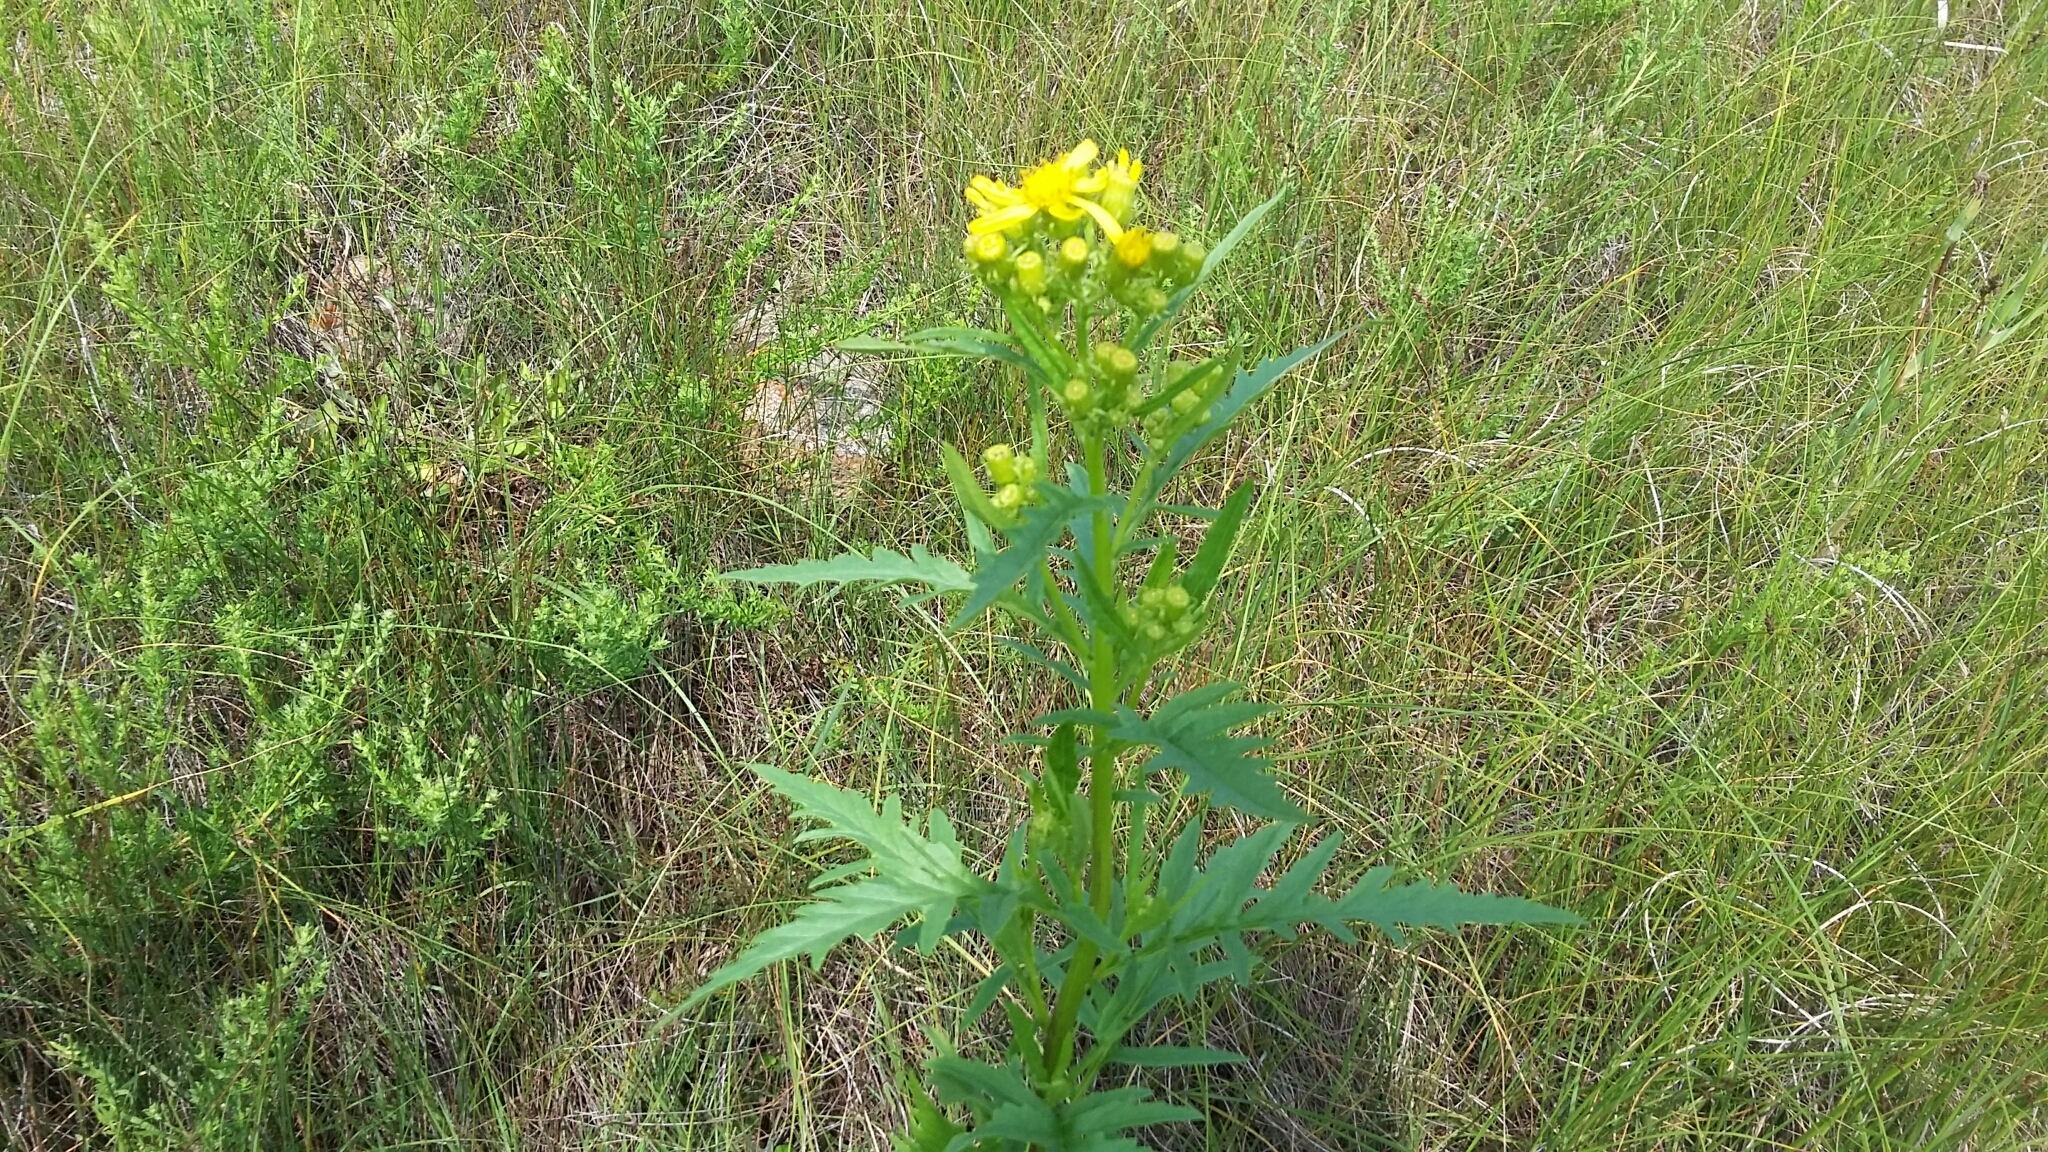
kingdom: Plantae
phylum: Tracheophyta
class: Magnoliopsida
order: Asterales
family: Asteraceae
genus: Senecio
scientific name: Senecio eremophilus
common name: Desert ragwort
